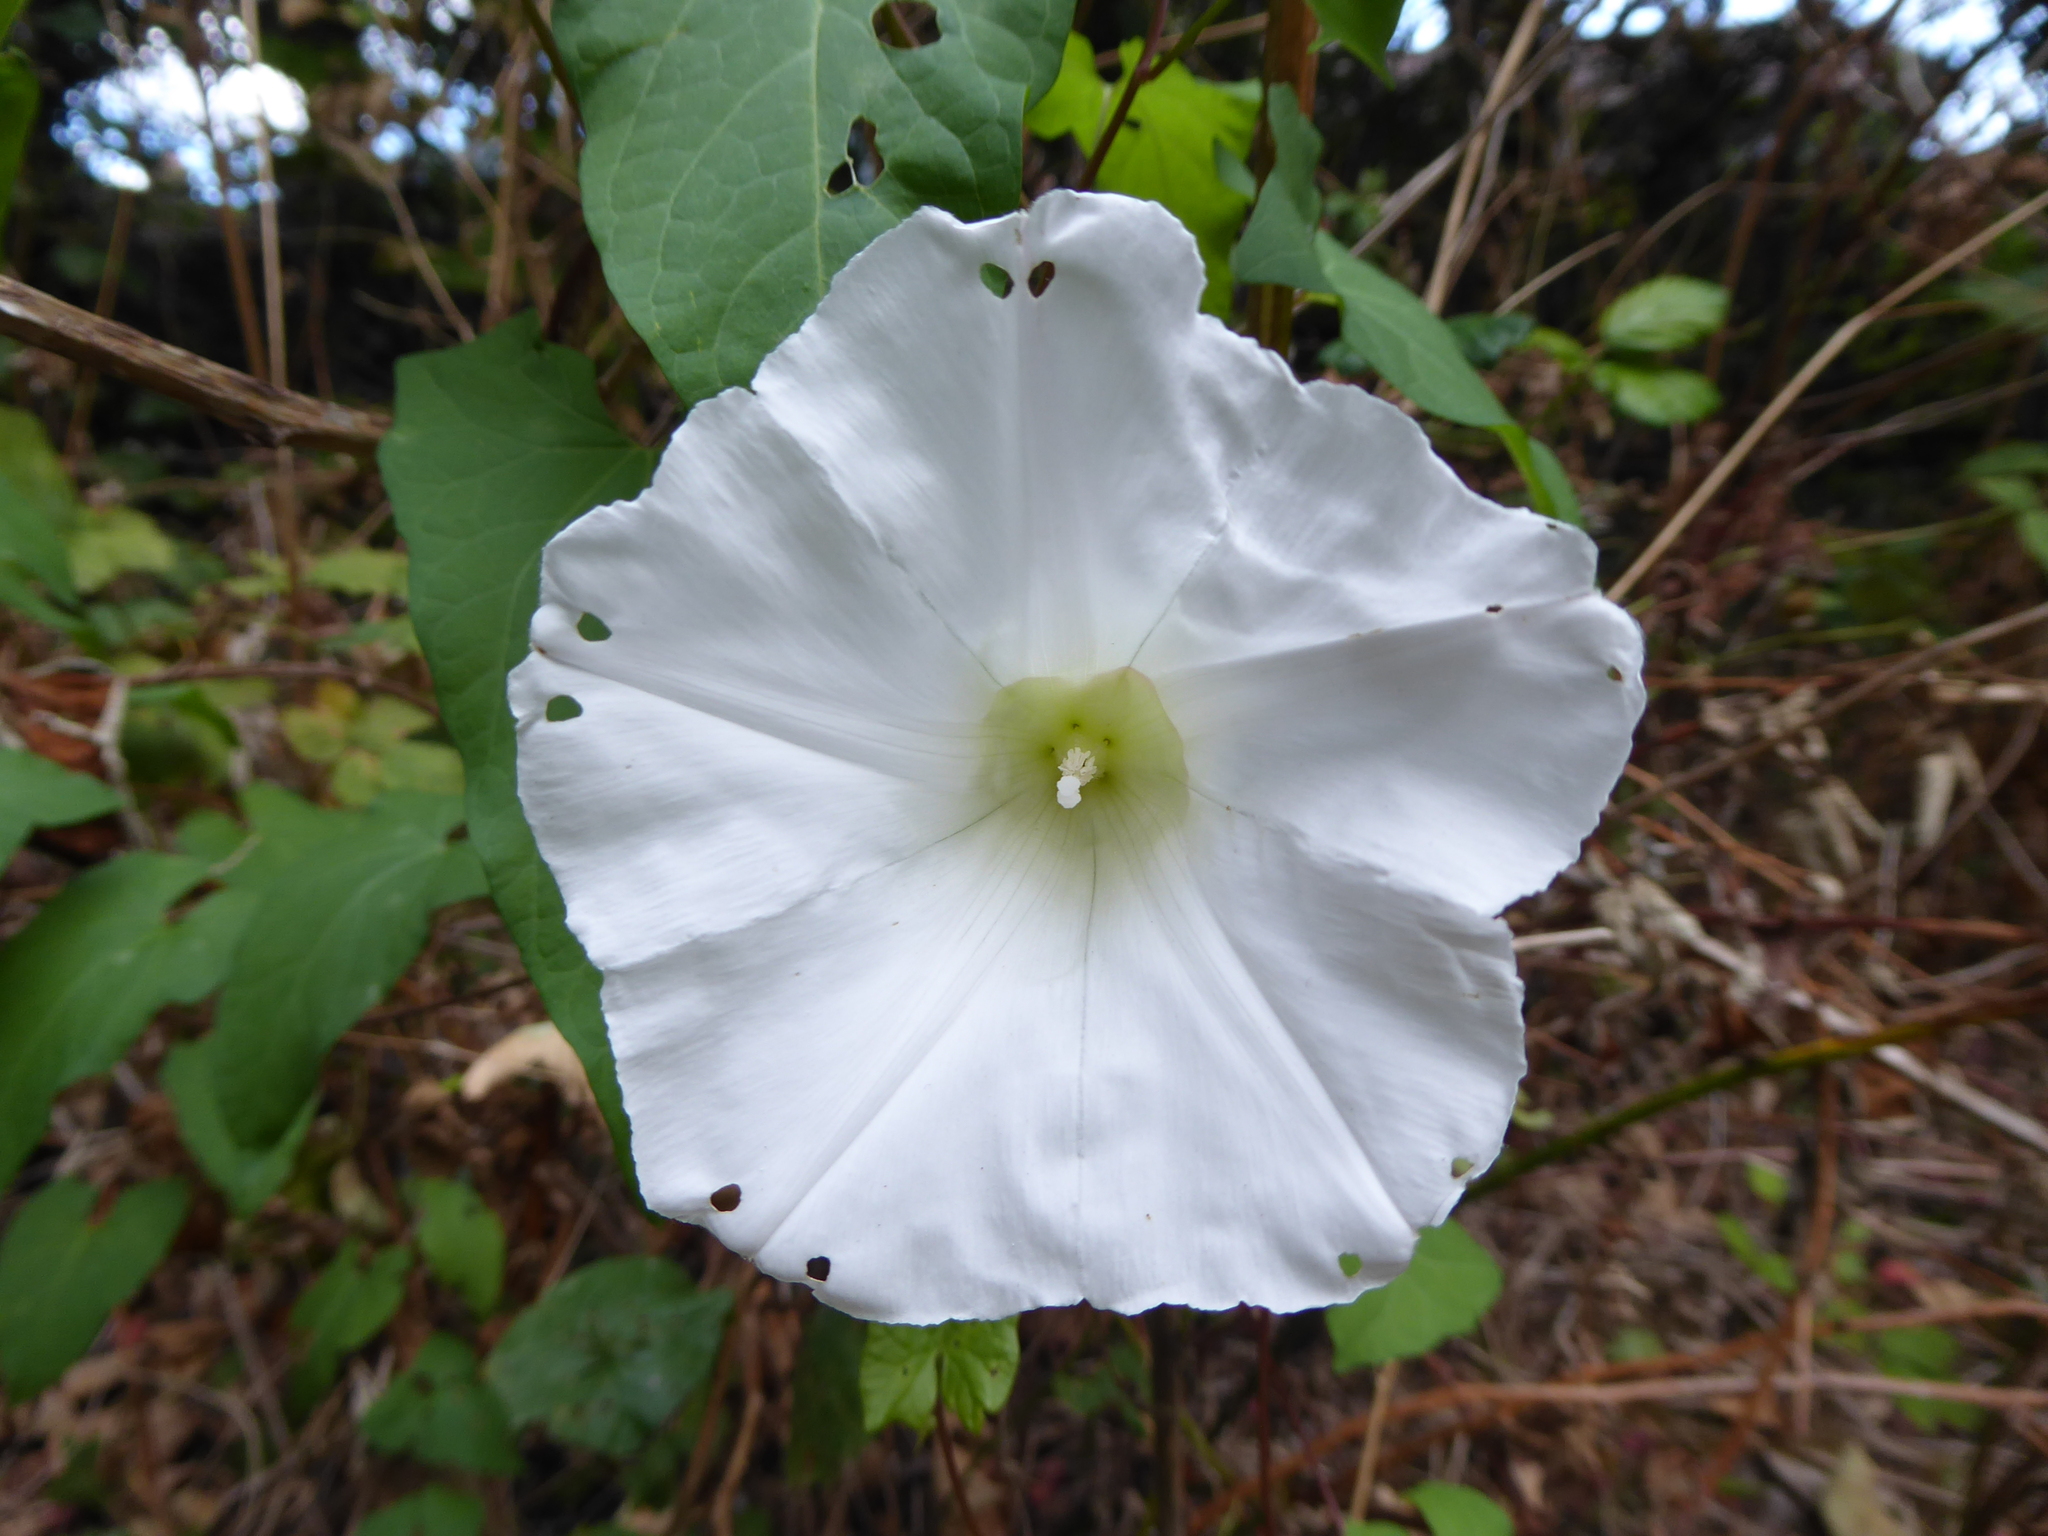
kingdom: Plantae
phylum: Tracheophyta
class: Magnoliopsida
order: Solanales
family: Convolvulaceae
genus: Calystegia
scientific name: Calystegia silvatica
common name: Large bindweed
